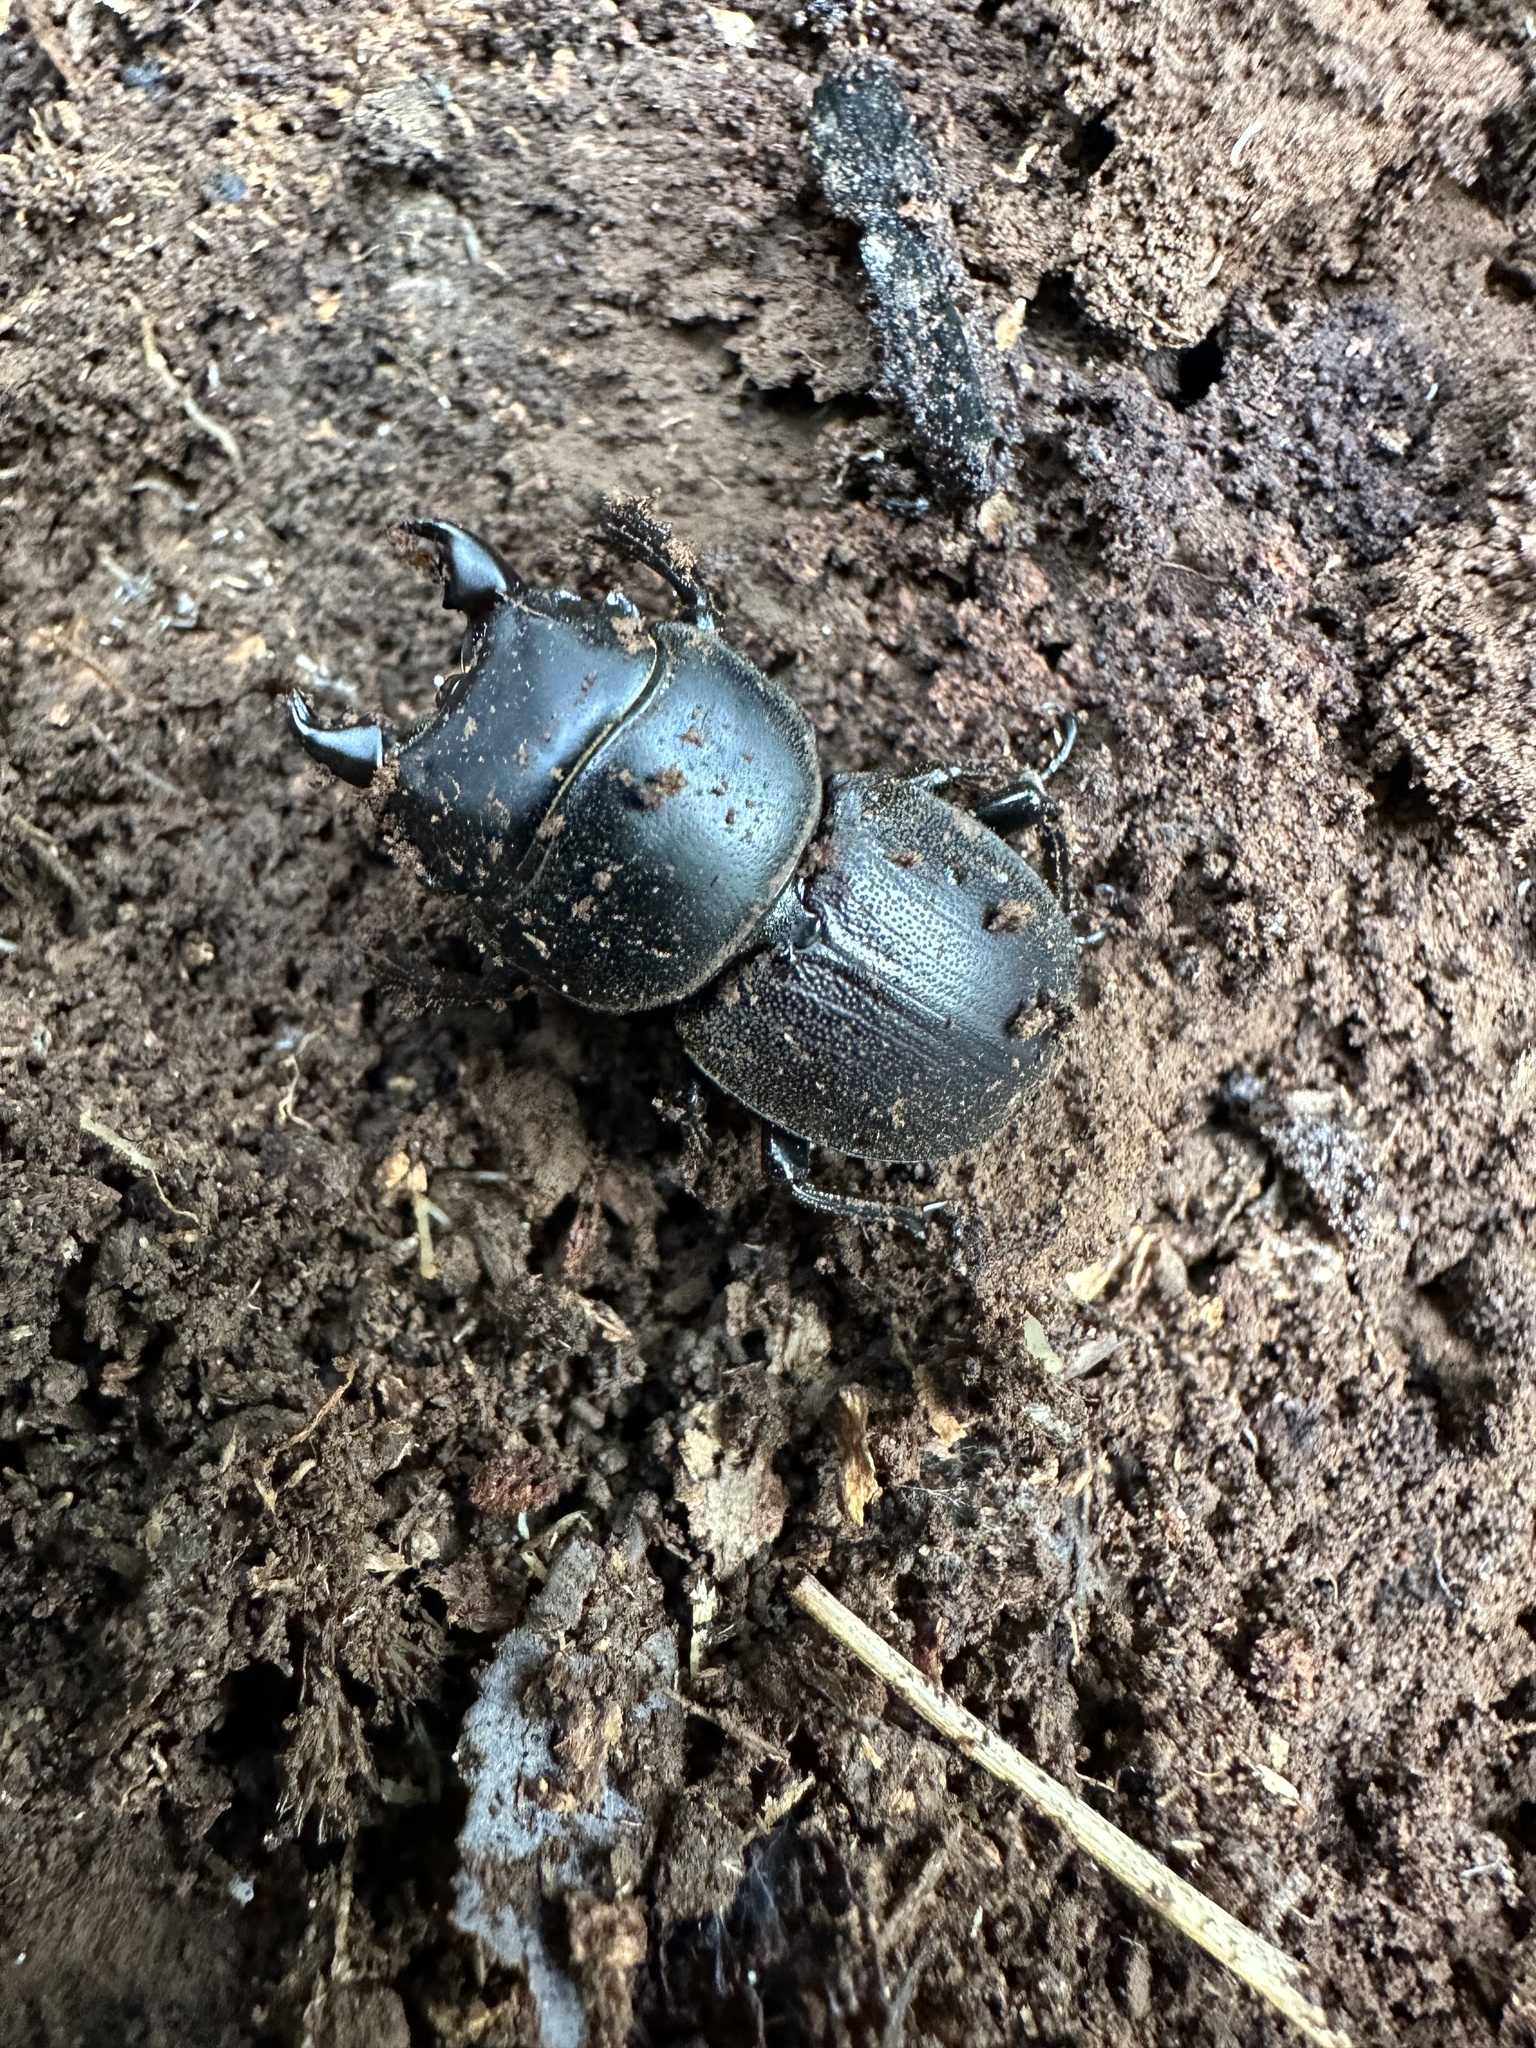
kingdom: Animalia
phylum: Arthropoda
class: Insecta
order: Coleoptera
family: Lucanidae
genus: Apterodorcus
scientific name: Apterodorcus bacchus
